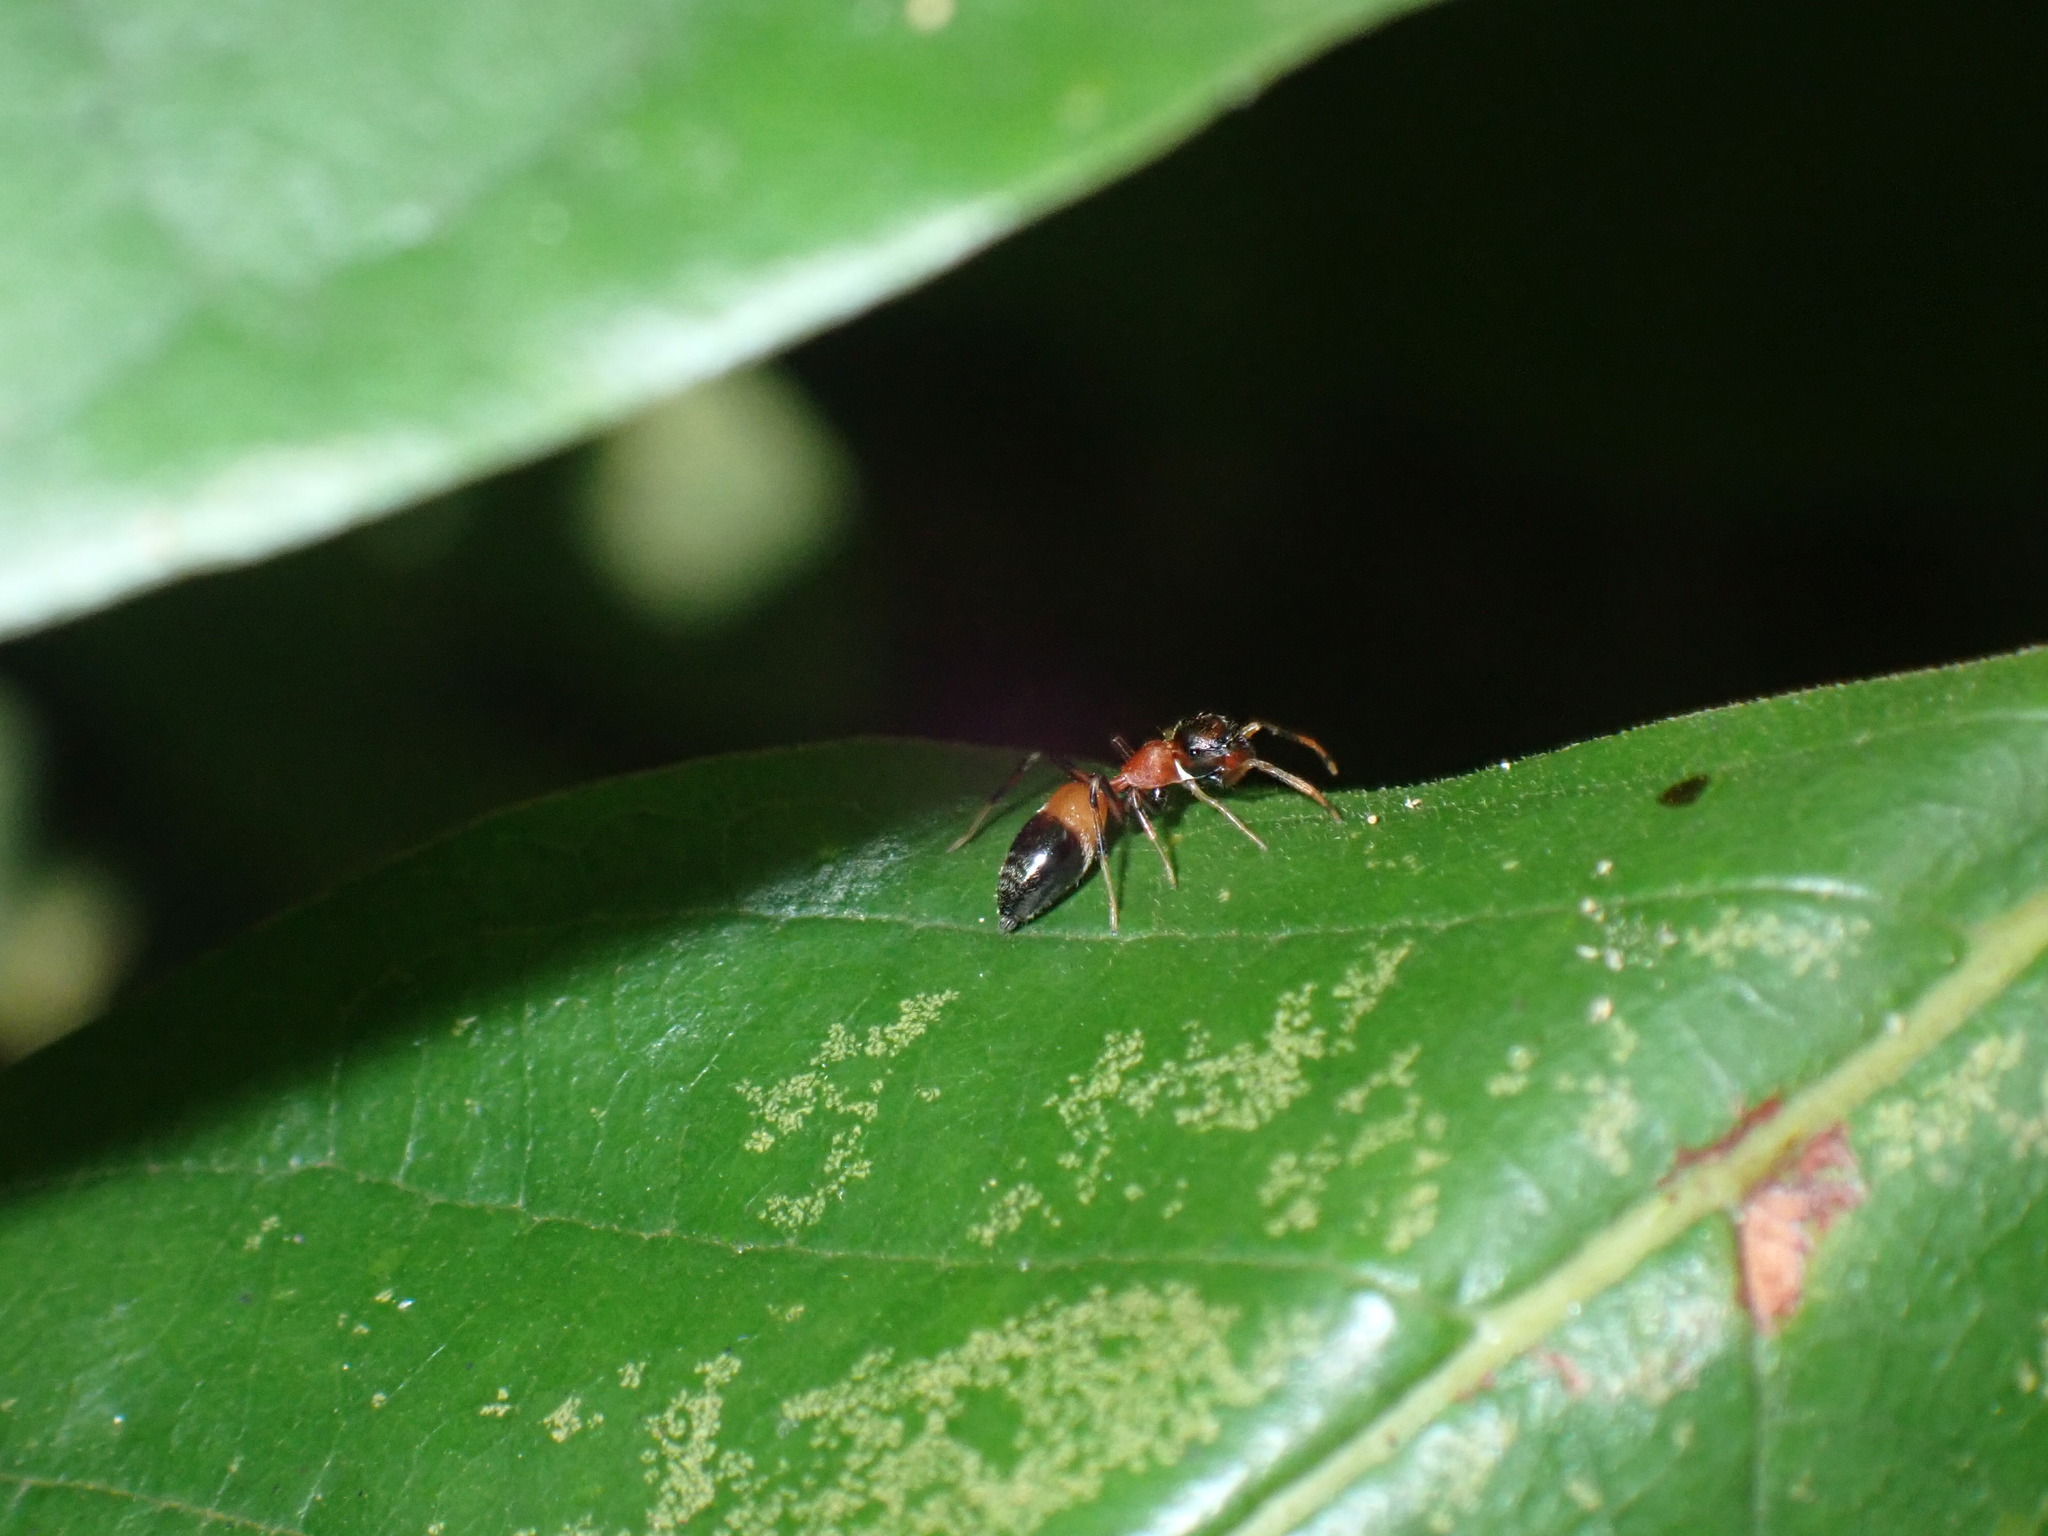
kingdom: Animalia
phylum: Arthropoda
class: Arachnida
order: Araneae
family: Salticidae
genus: Myrmarachne
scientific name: Myrmarachne melanocephala
